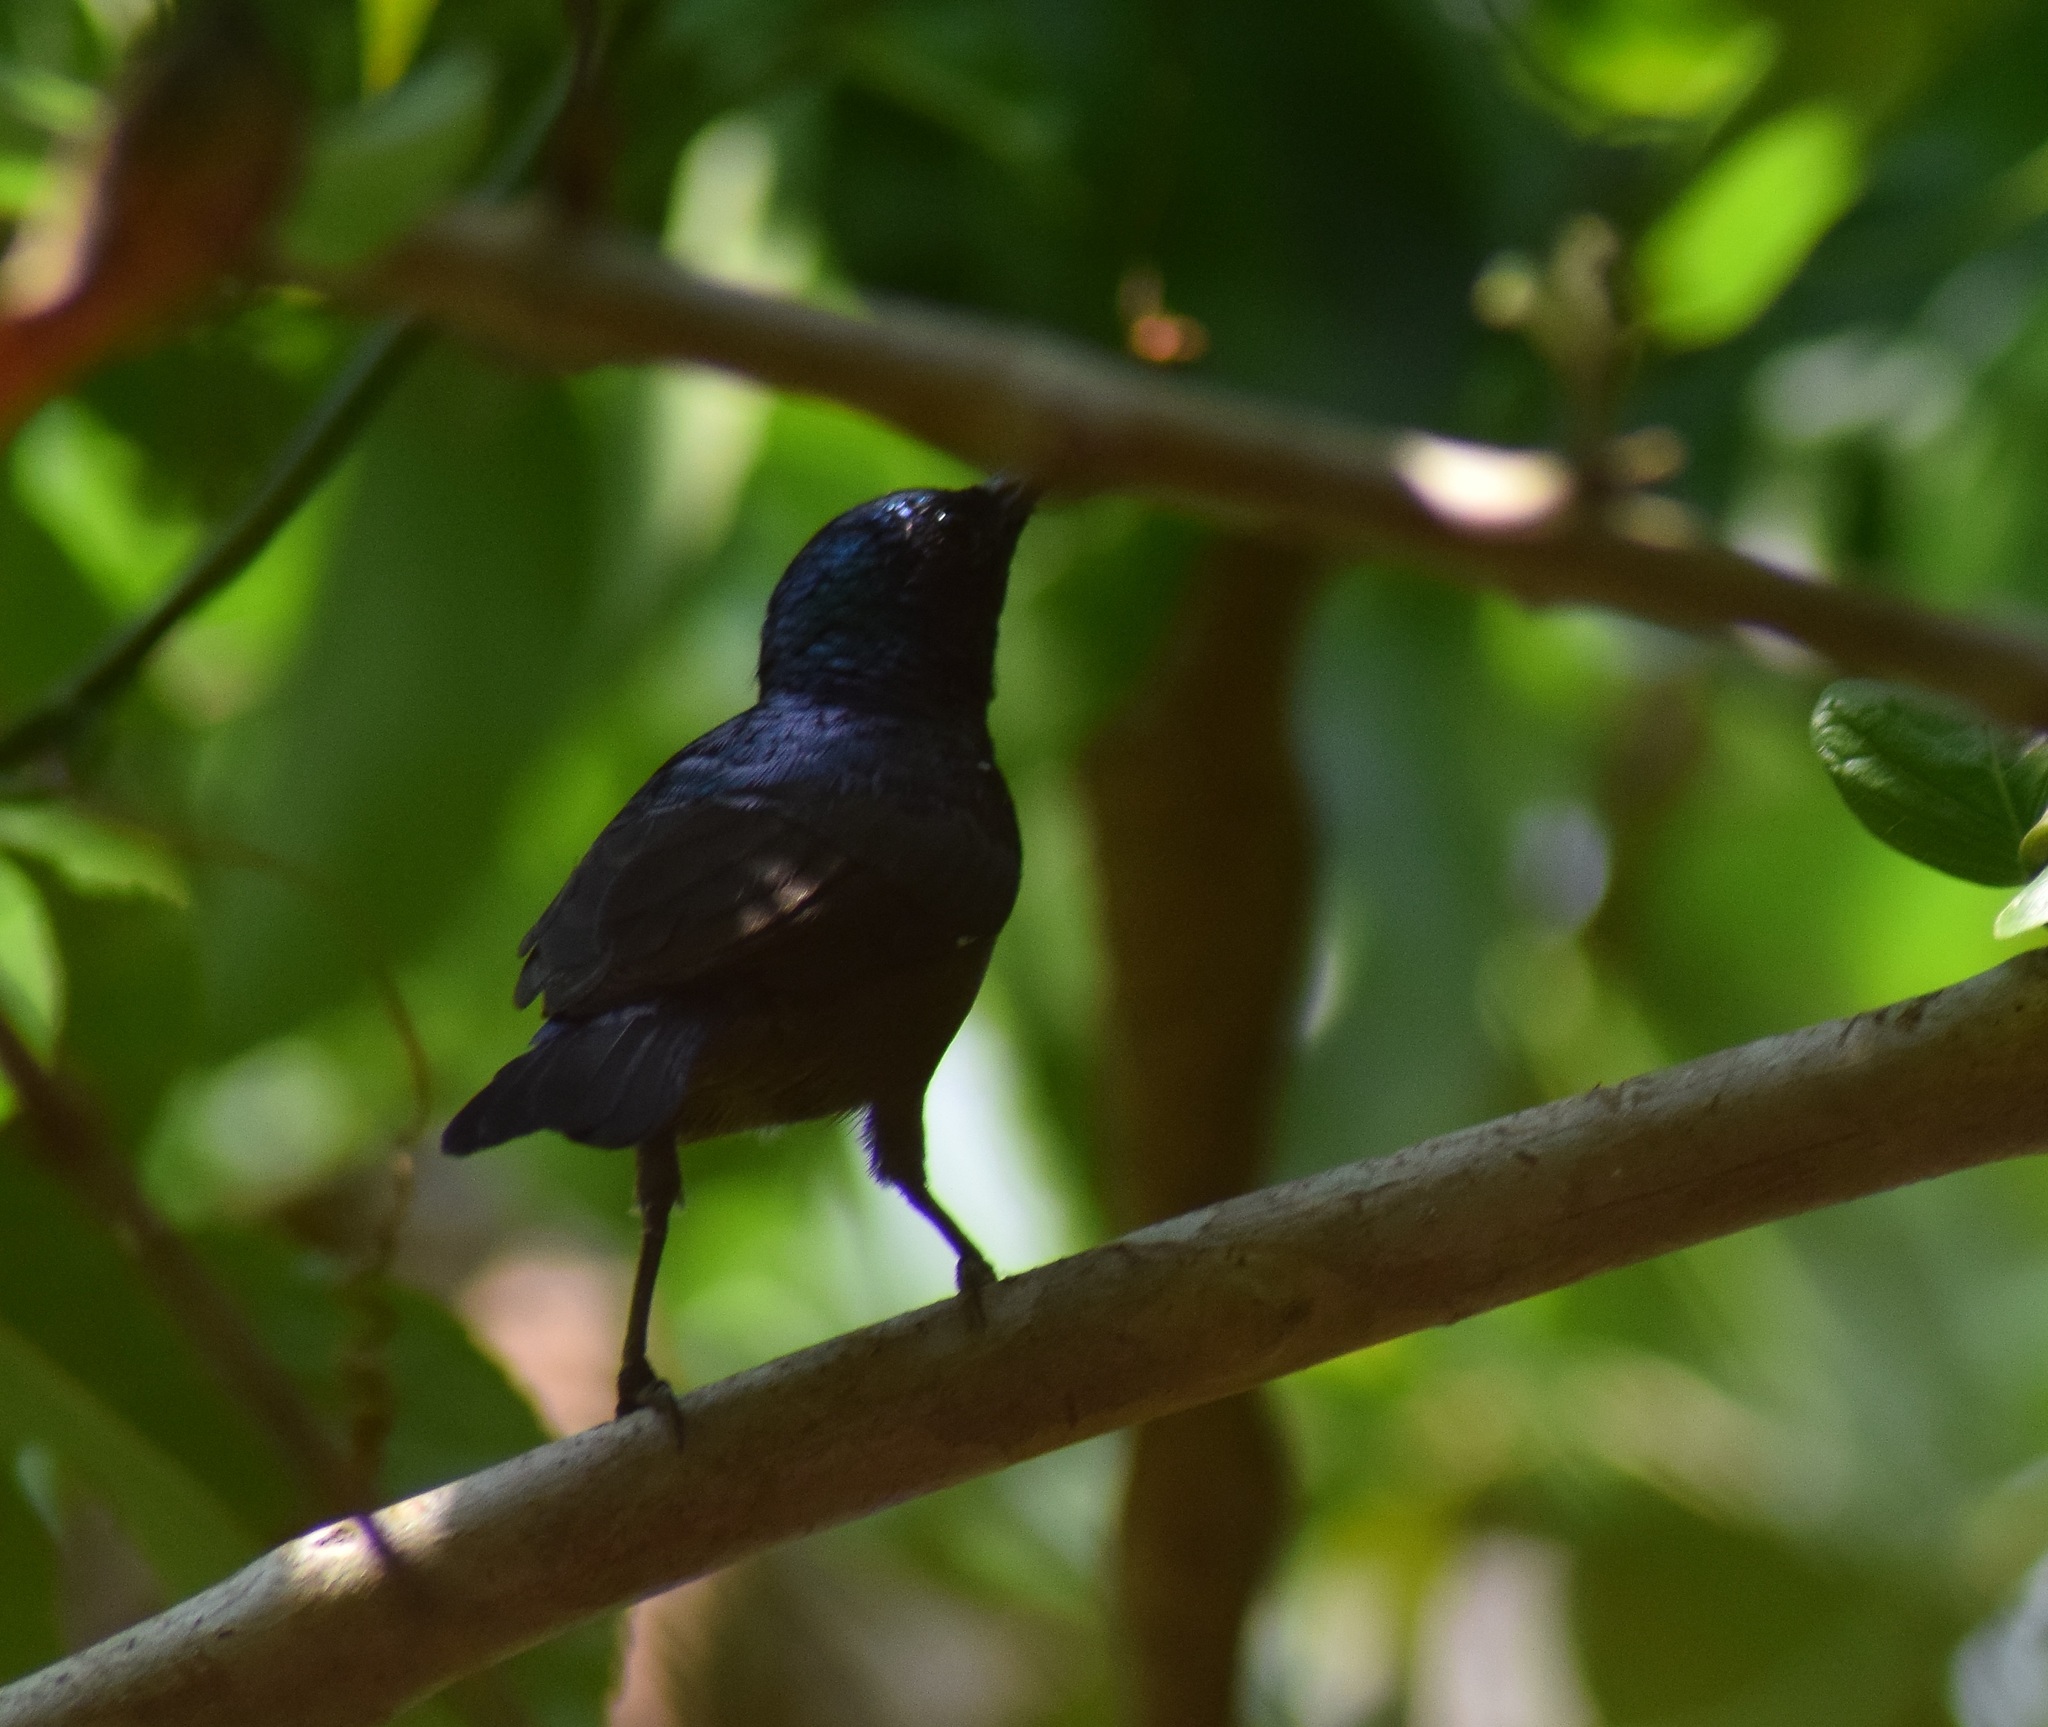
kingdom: Animalia
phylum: Chordata
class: Aves
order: Passeriformes
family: Nectariniidae
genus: Cinnyris
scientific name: Cinnyris lotenius
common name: Loten's sunbird
